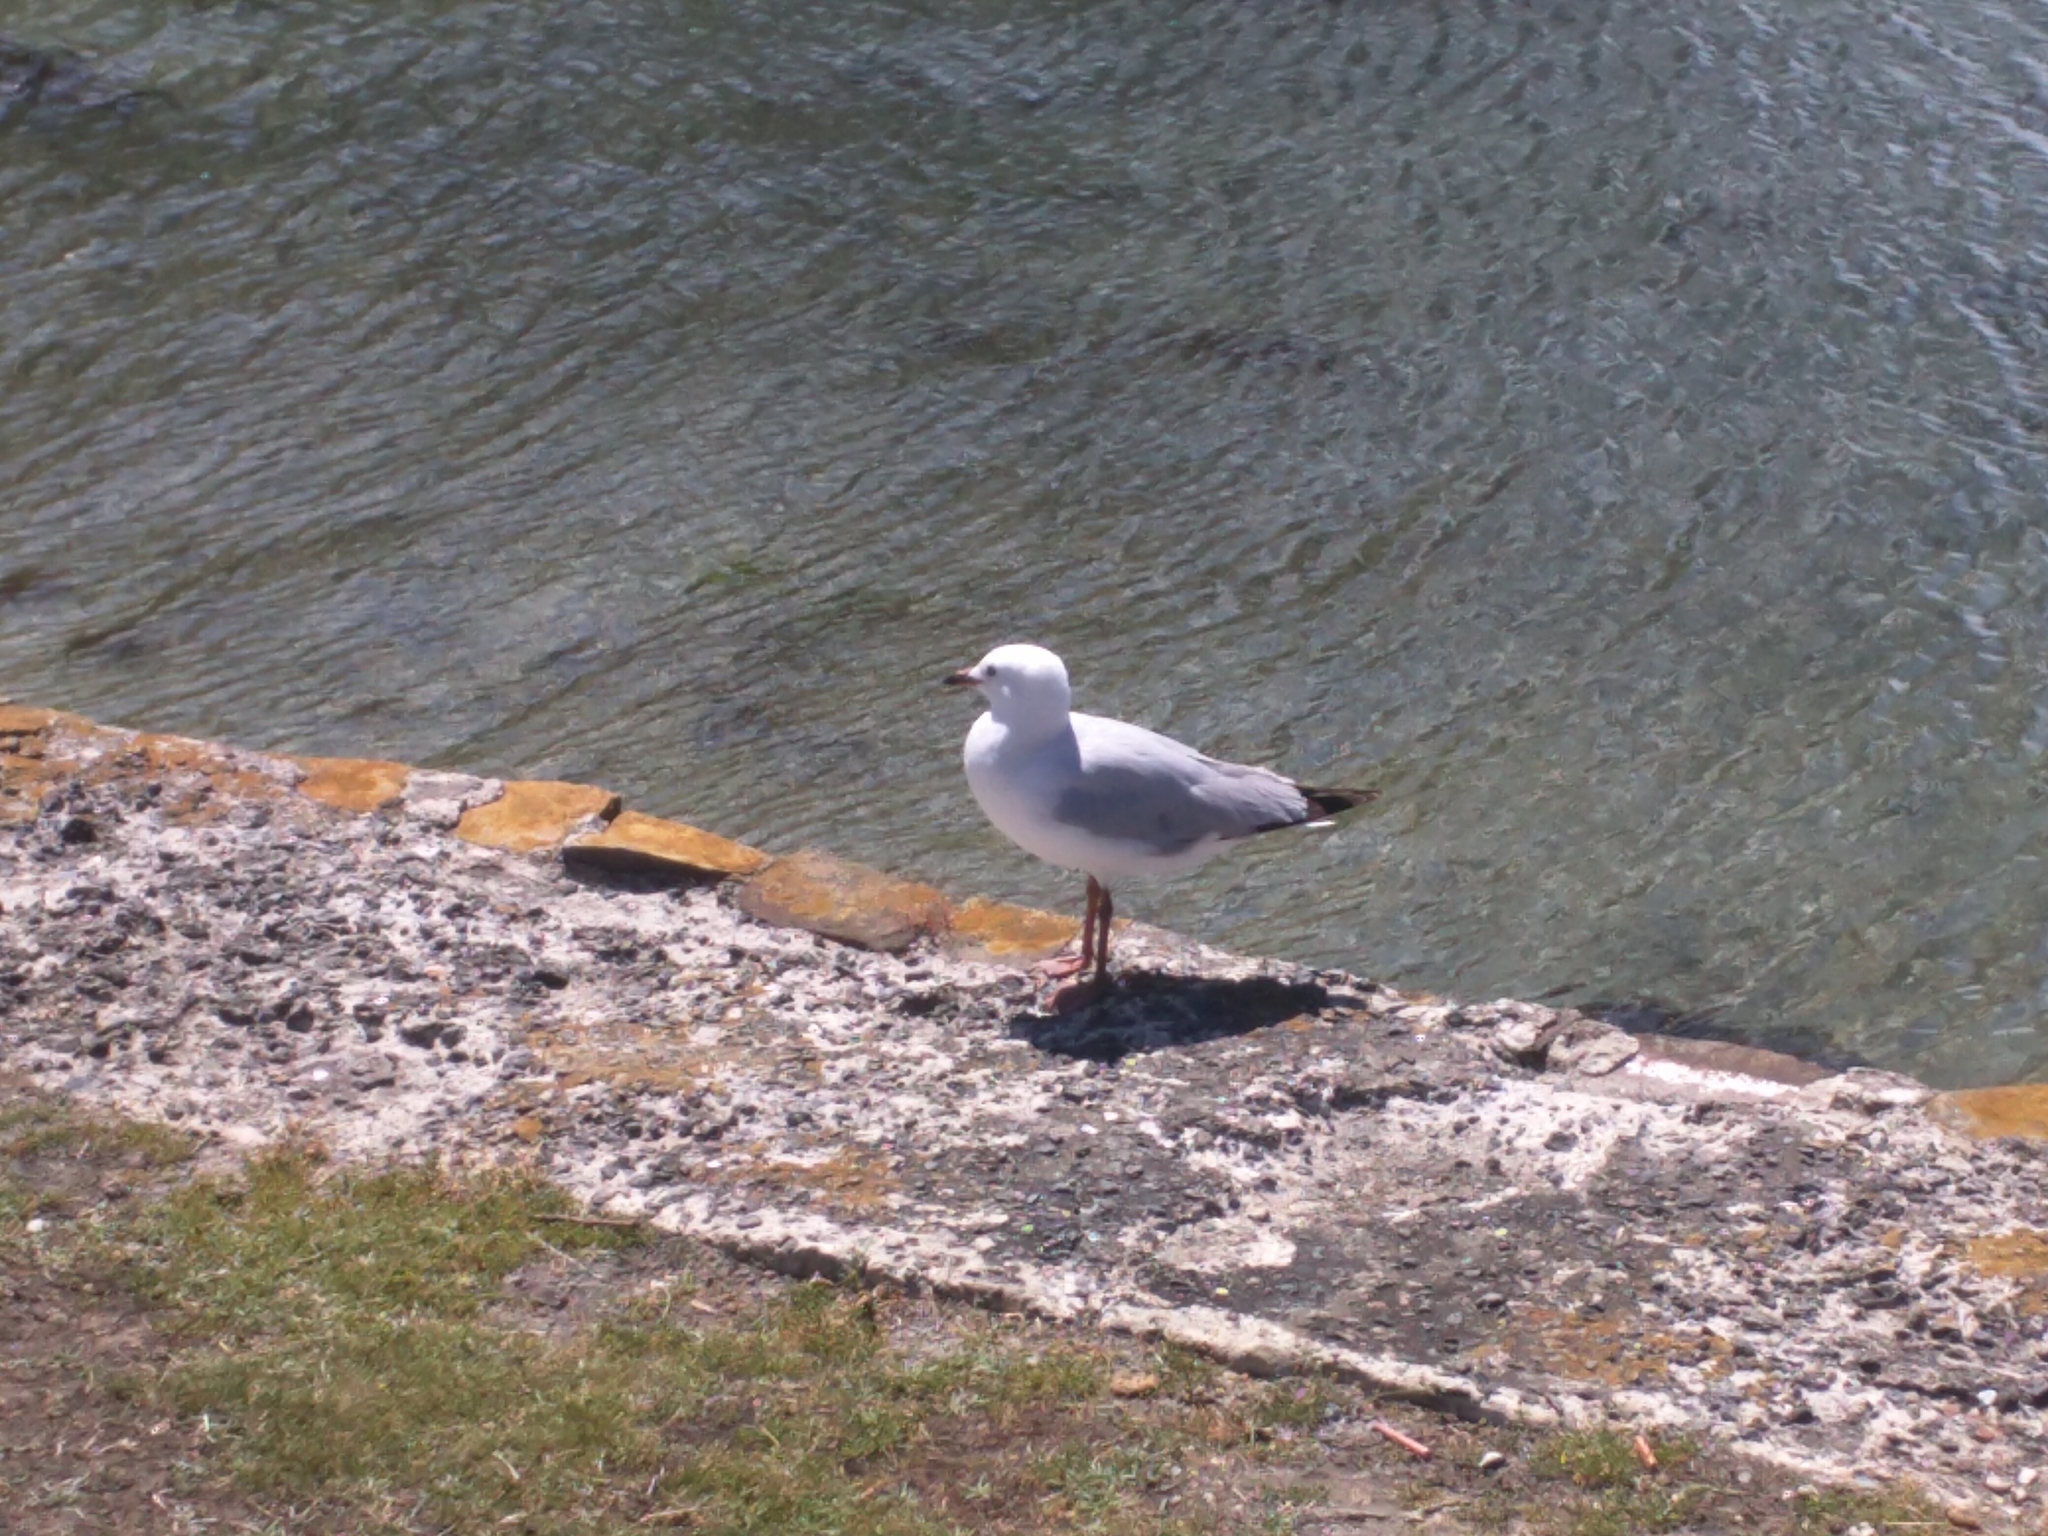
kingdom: Animalia
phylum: Chordata
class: Aves
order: Charadriiformes
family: Laridae
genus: Chroicocephalus
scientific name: Chroicocephalus novaehollandiae
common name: Silver gull
